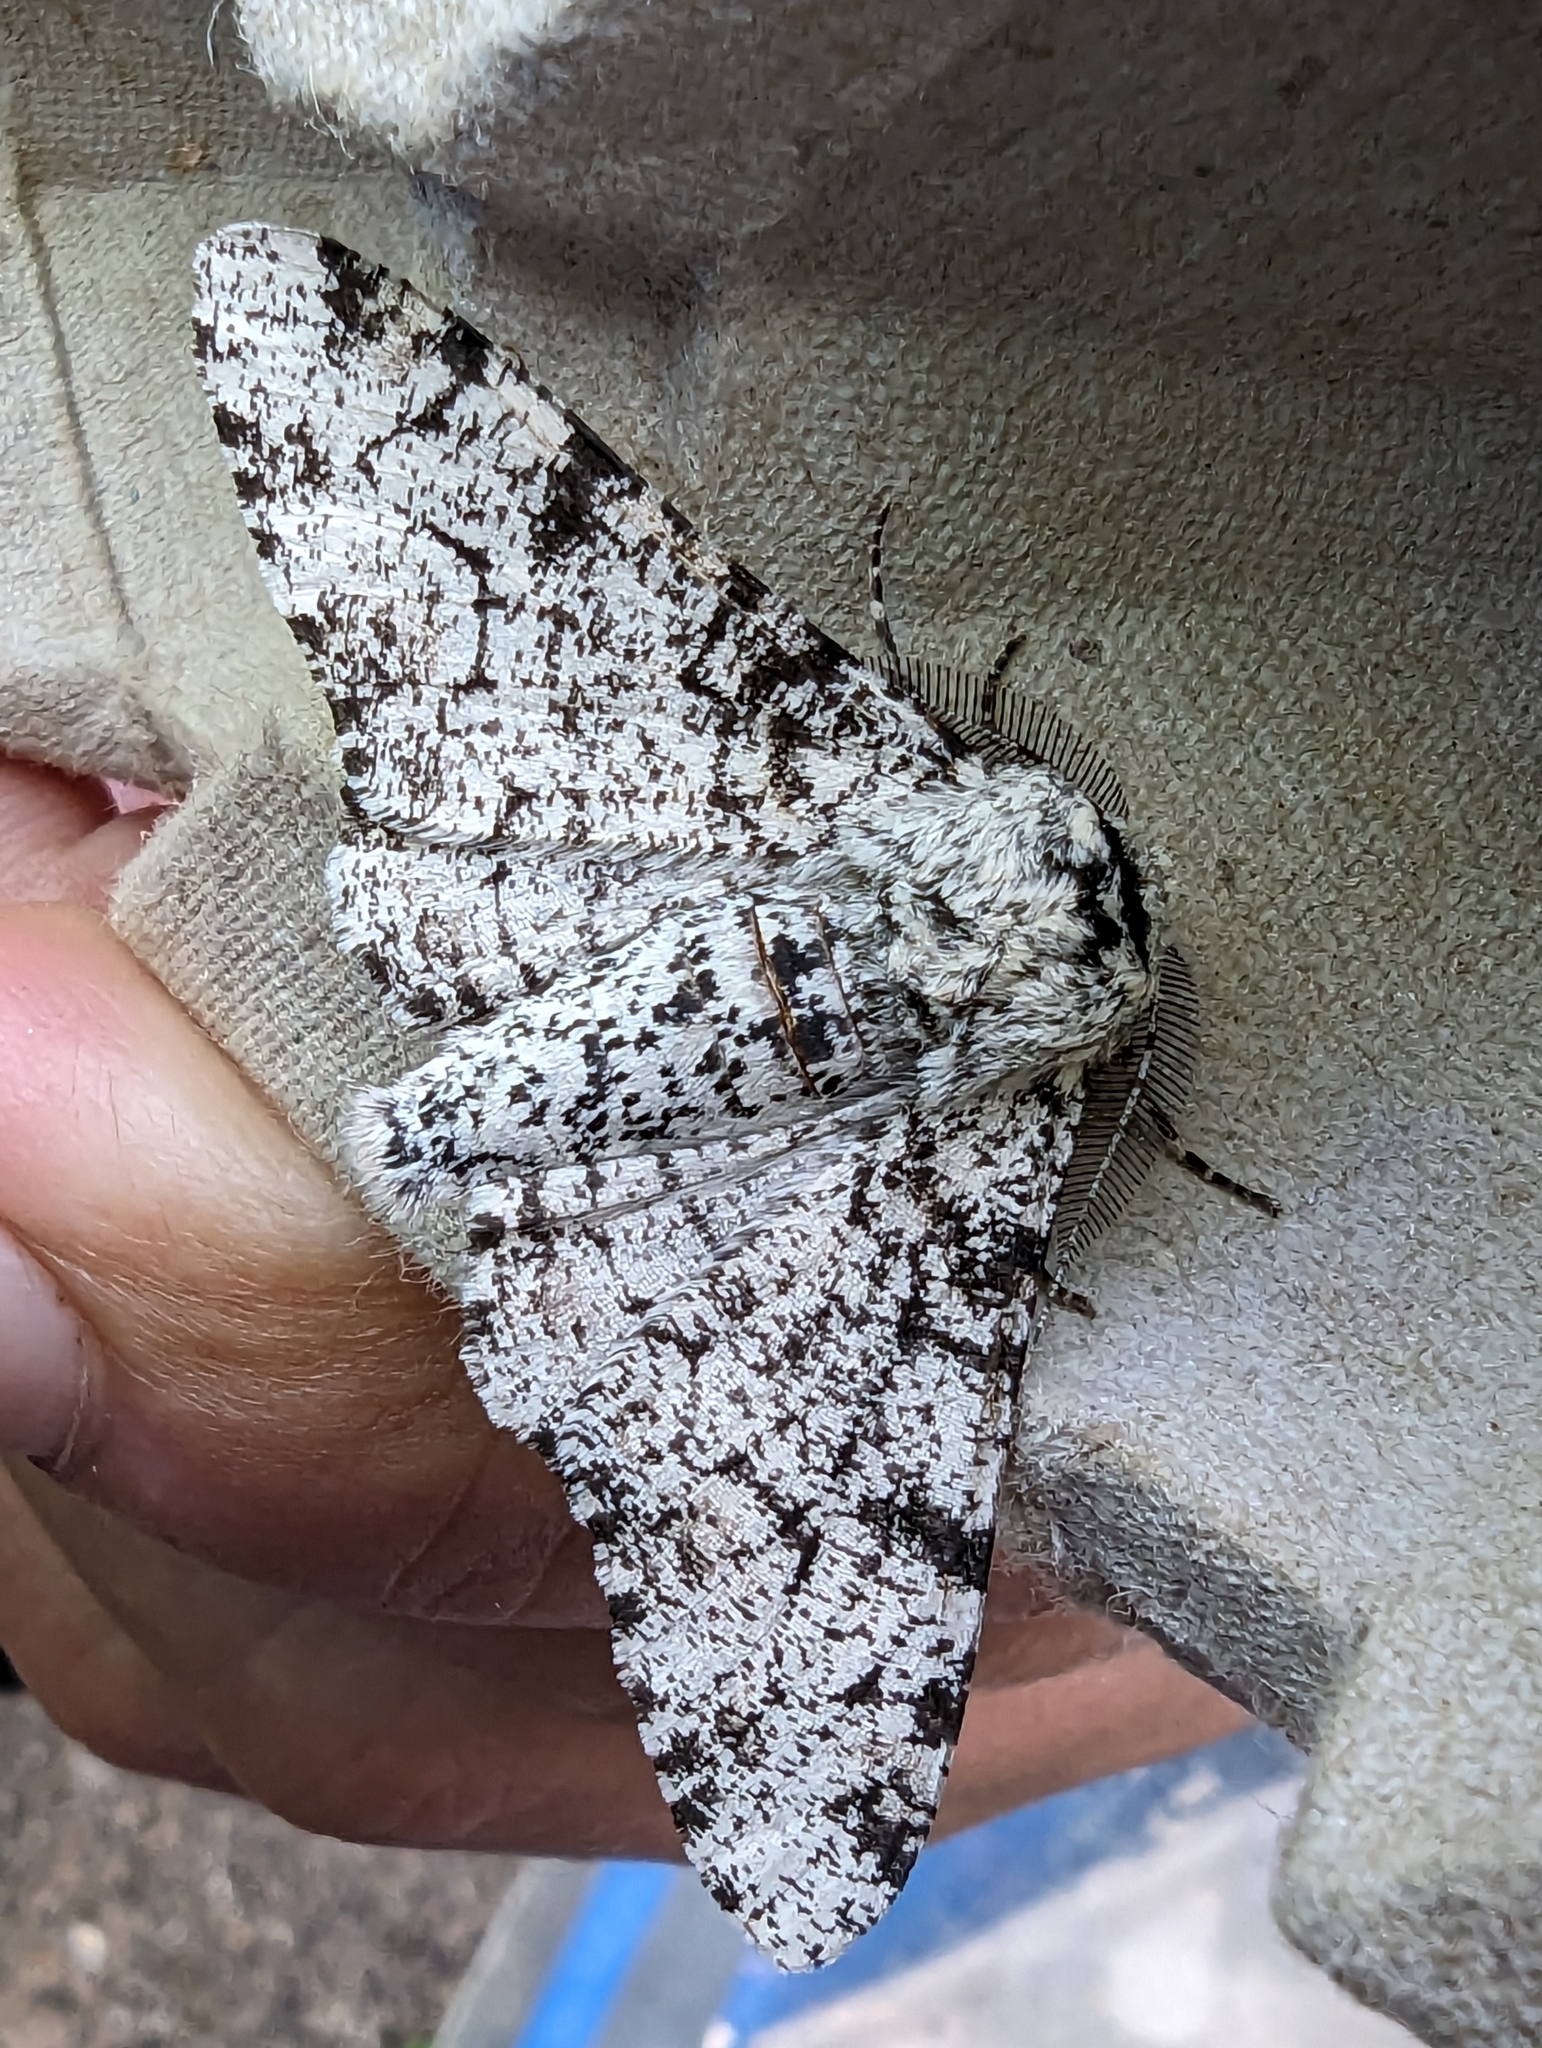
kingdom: Animalia
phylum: Arthropoda
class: Insecta
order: Lepidoptera
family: Geometridae
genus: Biston
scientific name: Biston betularia
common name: Peppered moth
